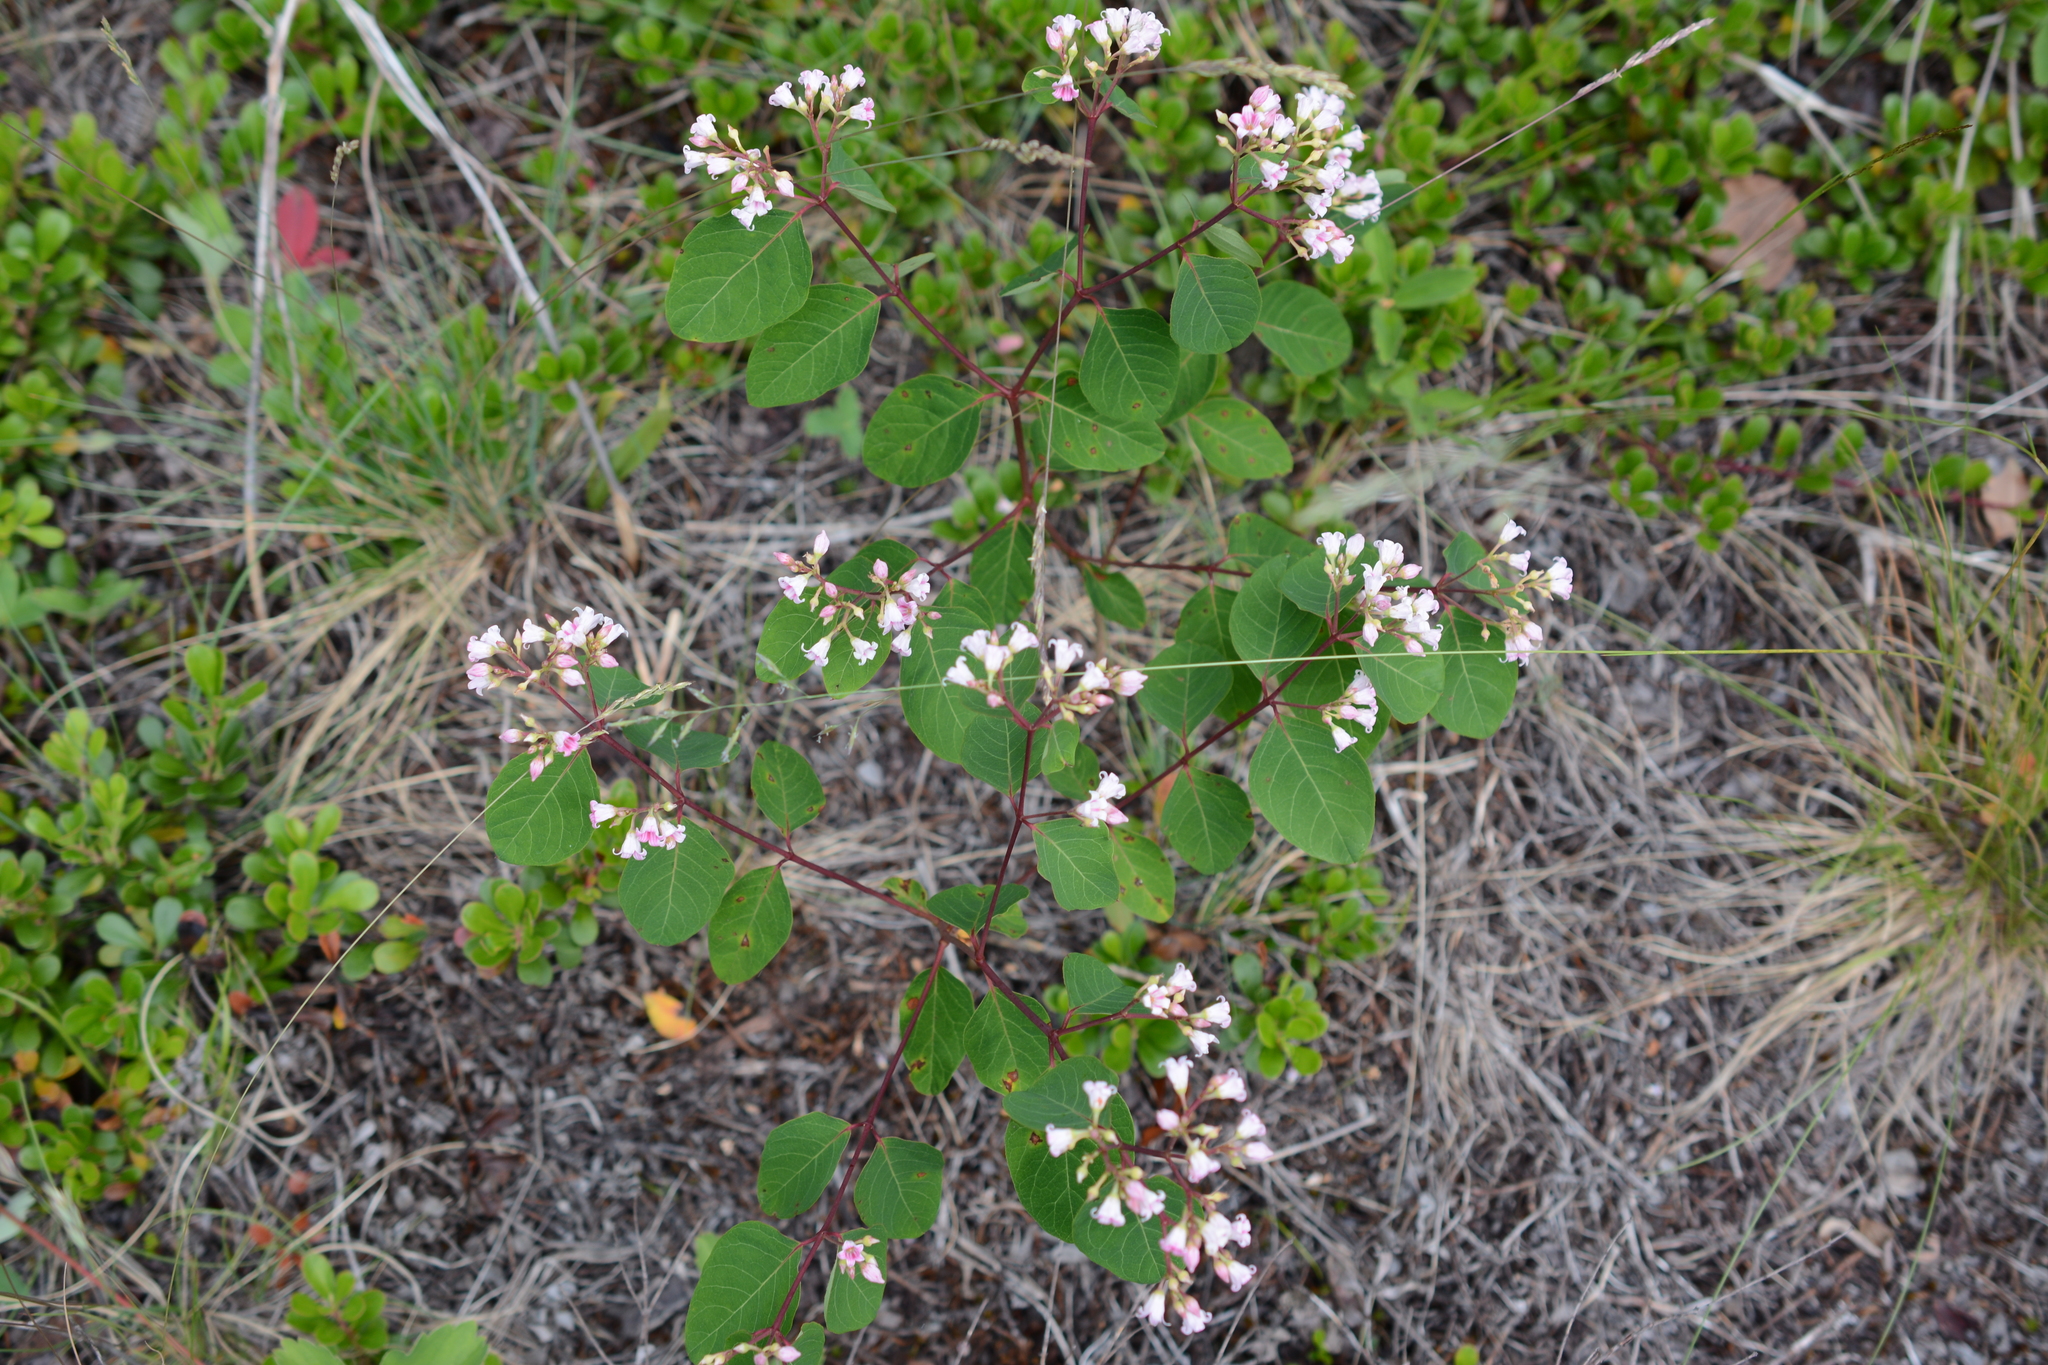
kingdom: Plantae
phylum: Tracheophyta
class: Magnoliopsida
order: Gentianales
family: Apocynaceae
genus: Apocynum
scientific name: Apocynum androsaemifolium
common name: Spreading dogbane
